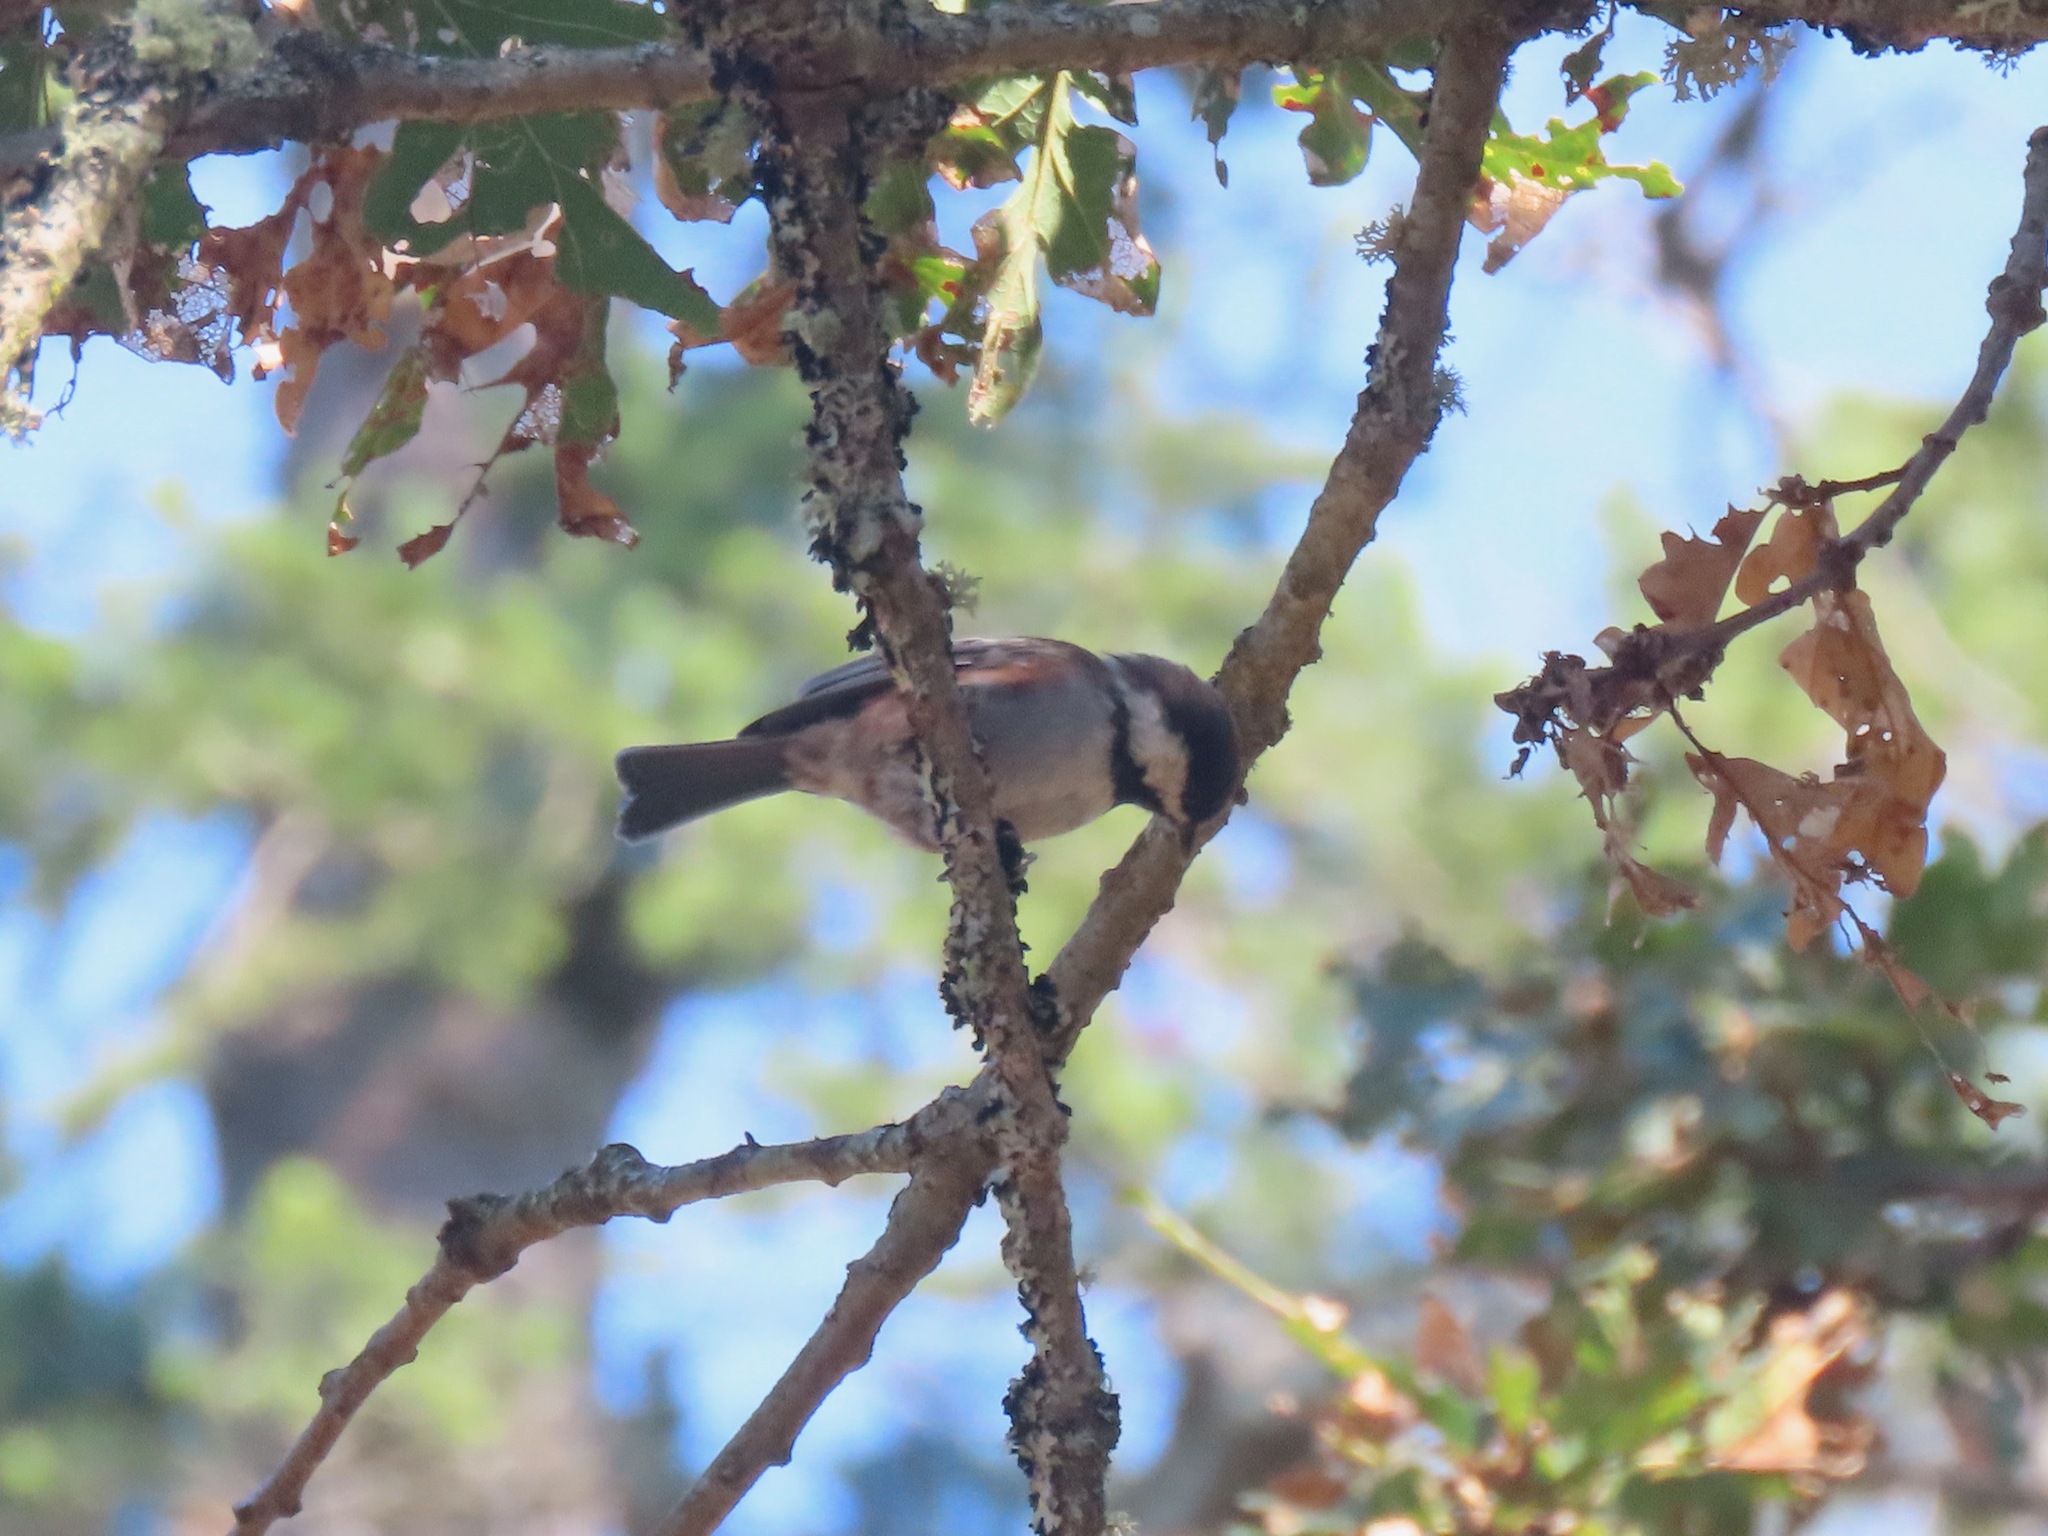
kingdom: Animalia
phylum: Chordata
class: Aves
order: Passeriformes
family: Paridae
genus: Poecile
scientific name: Poecile rufescens
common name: Chestnut-backed chickadee
